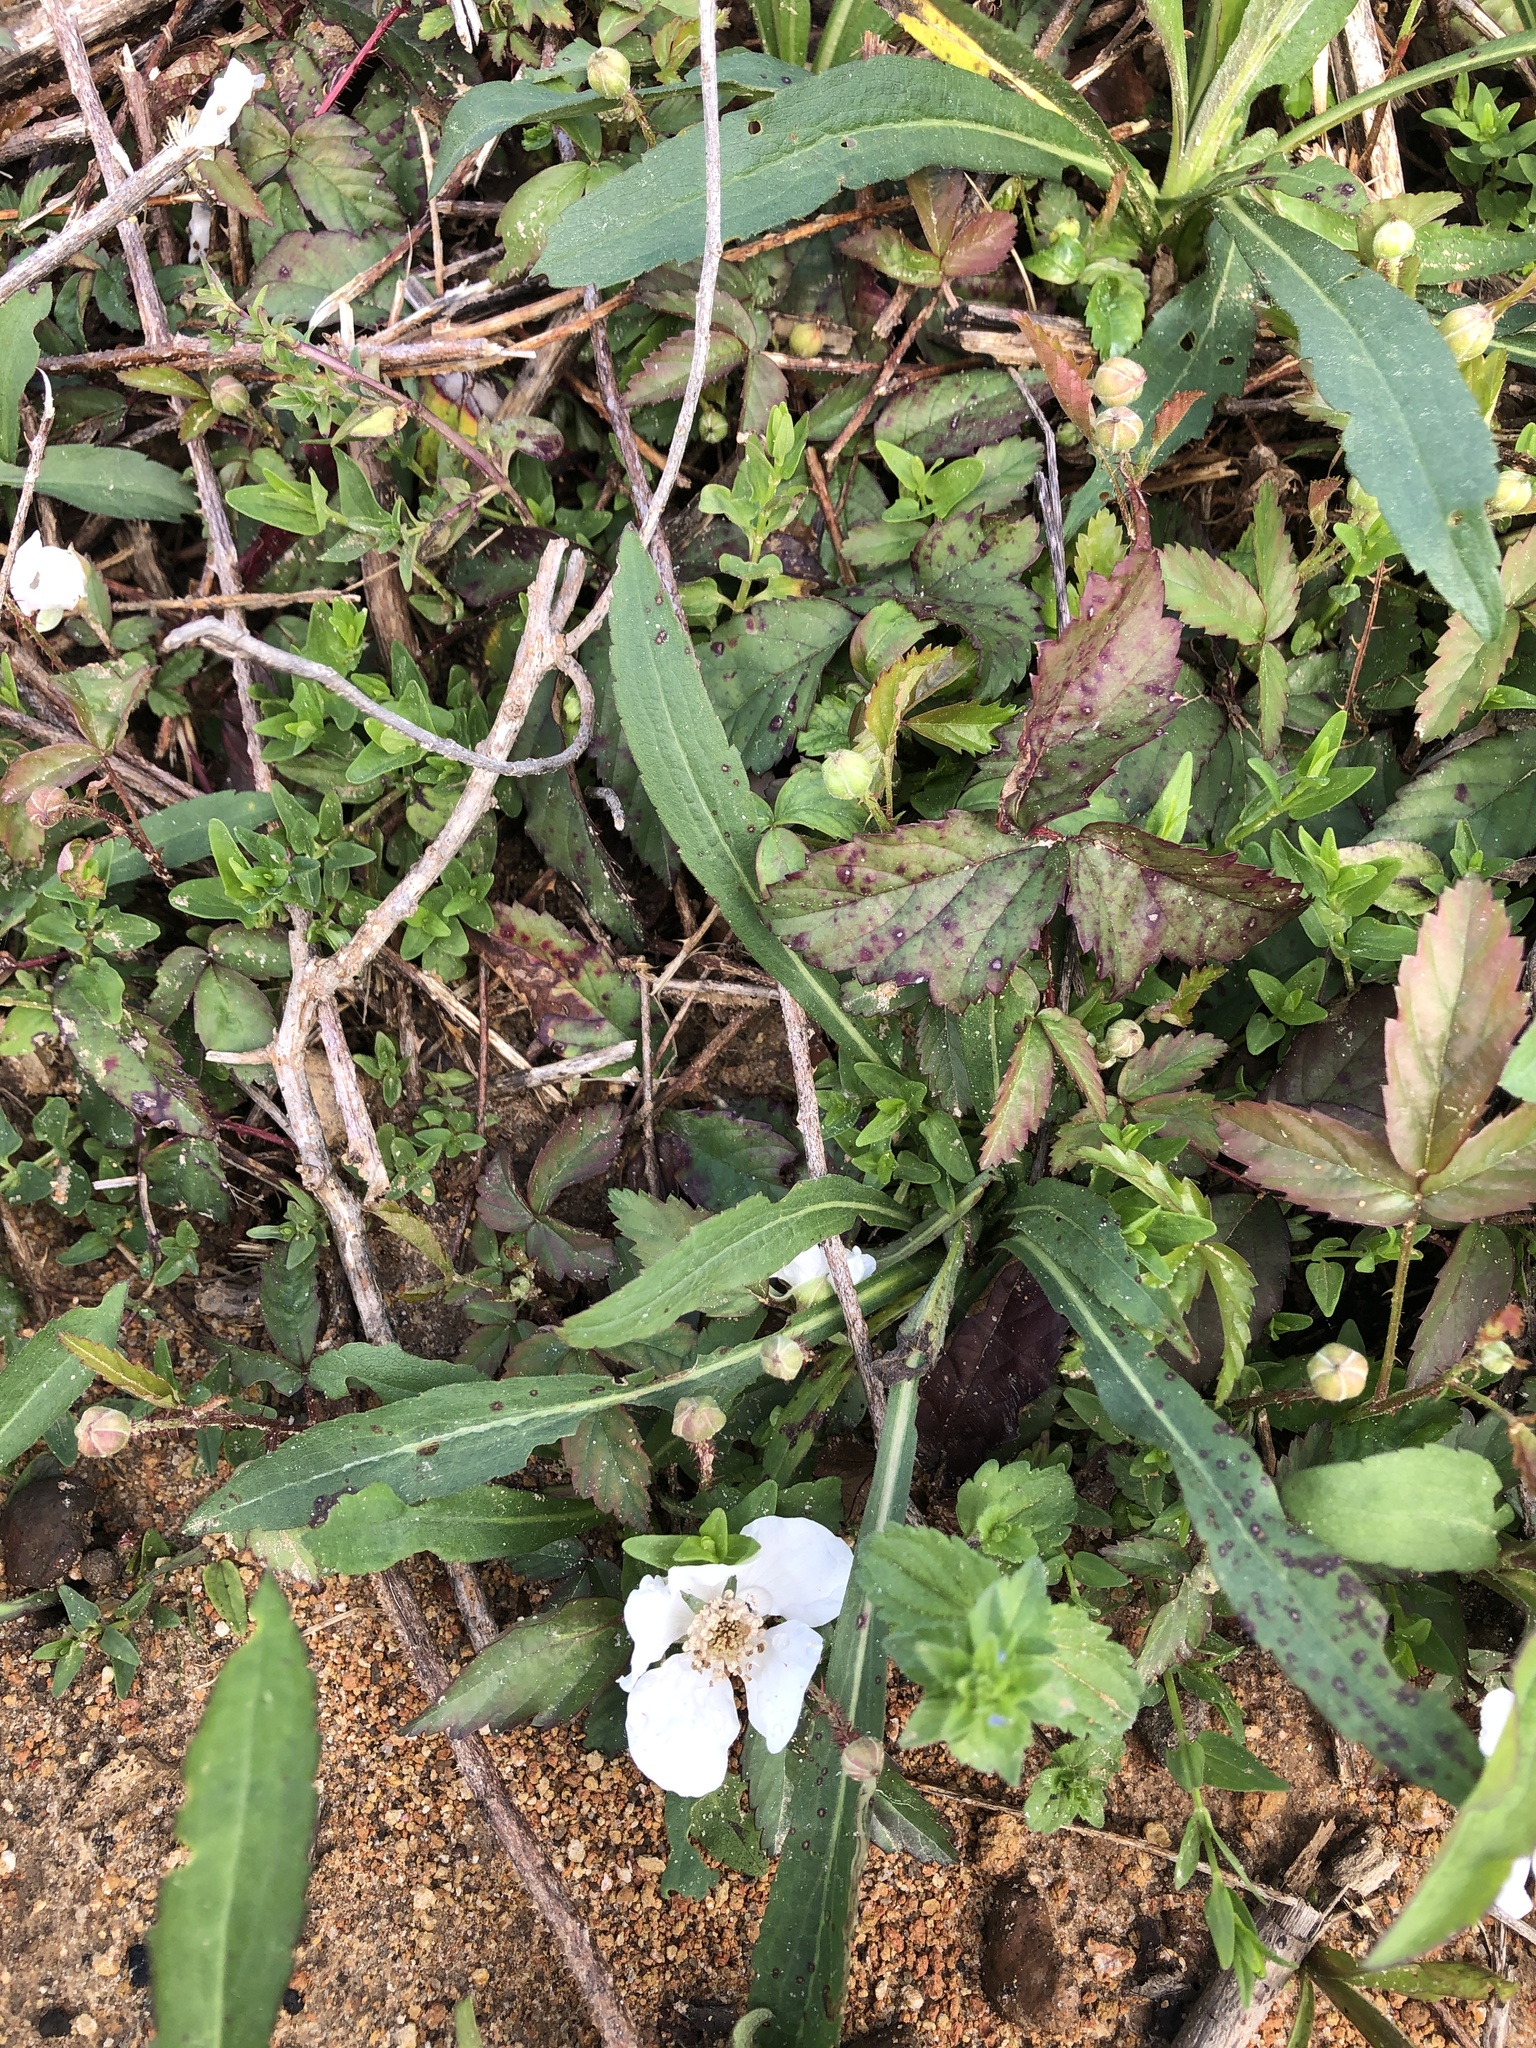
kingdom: Plantae
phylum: Tracheophyta
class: Magnoliopsida
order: Rosales
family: Rosaceae
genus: Rubus
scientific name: Rubus trivialis
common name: Southern dewberry
